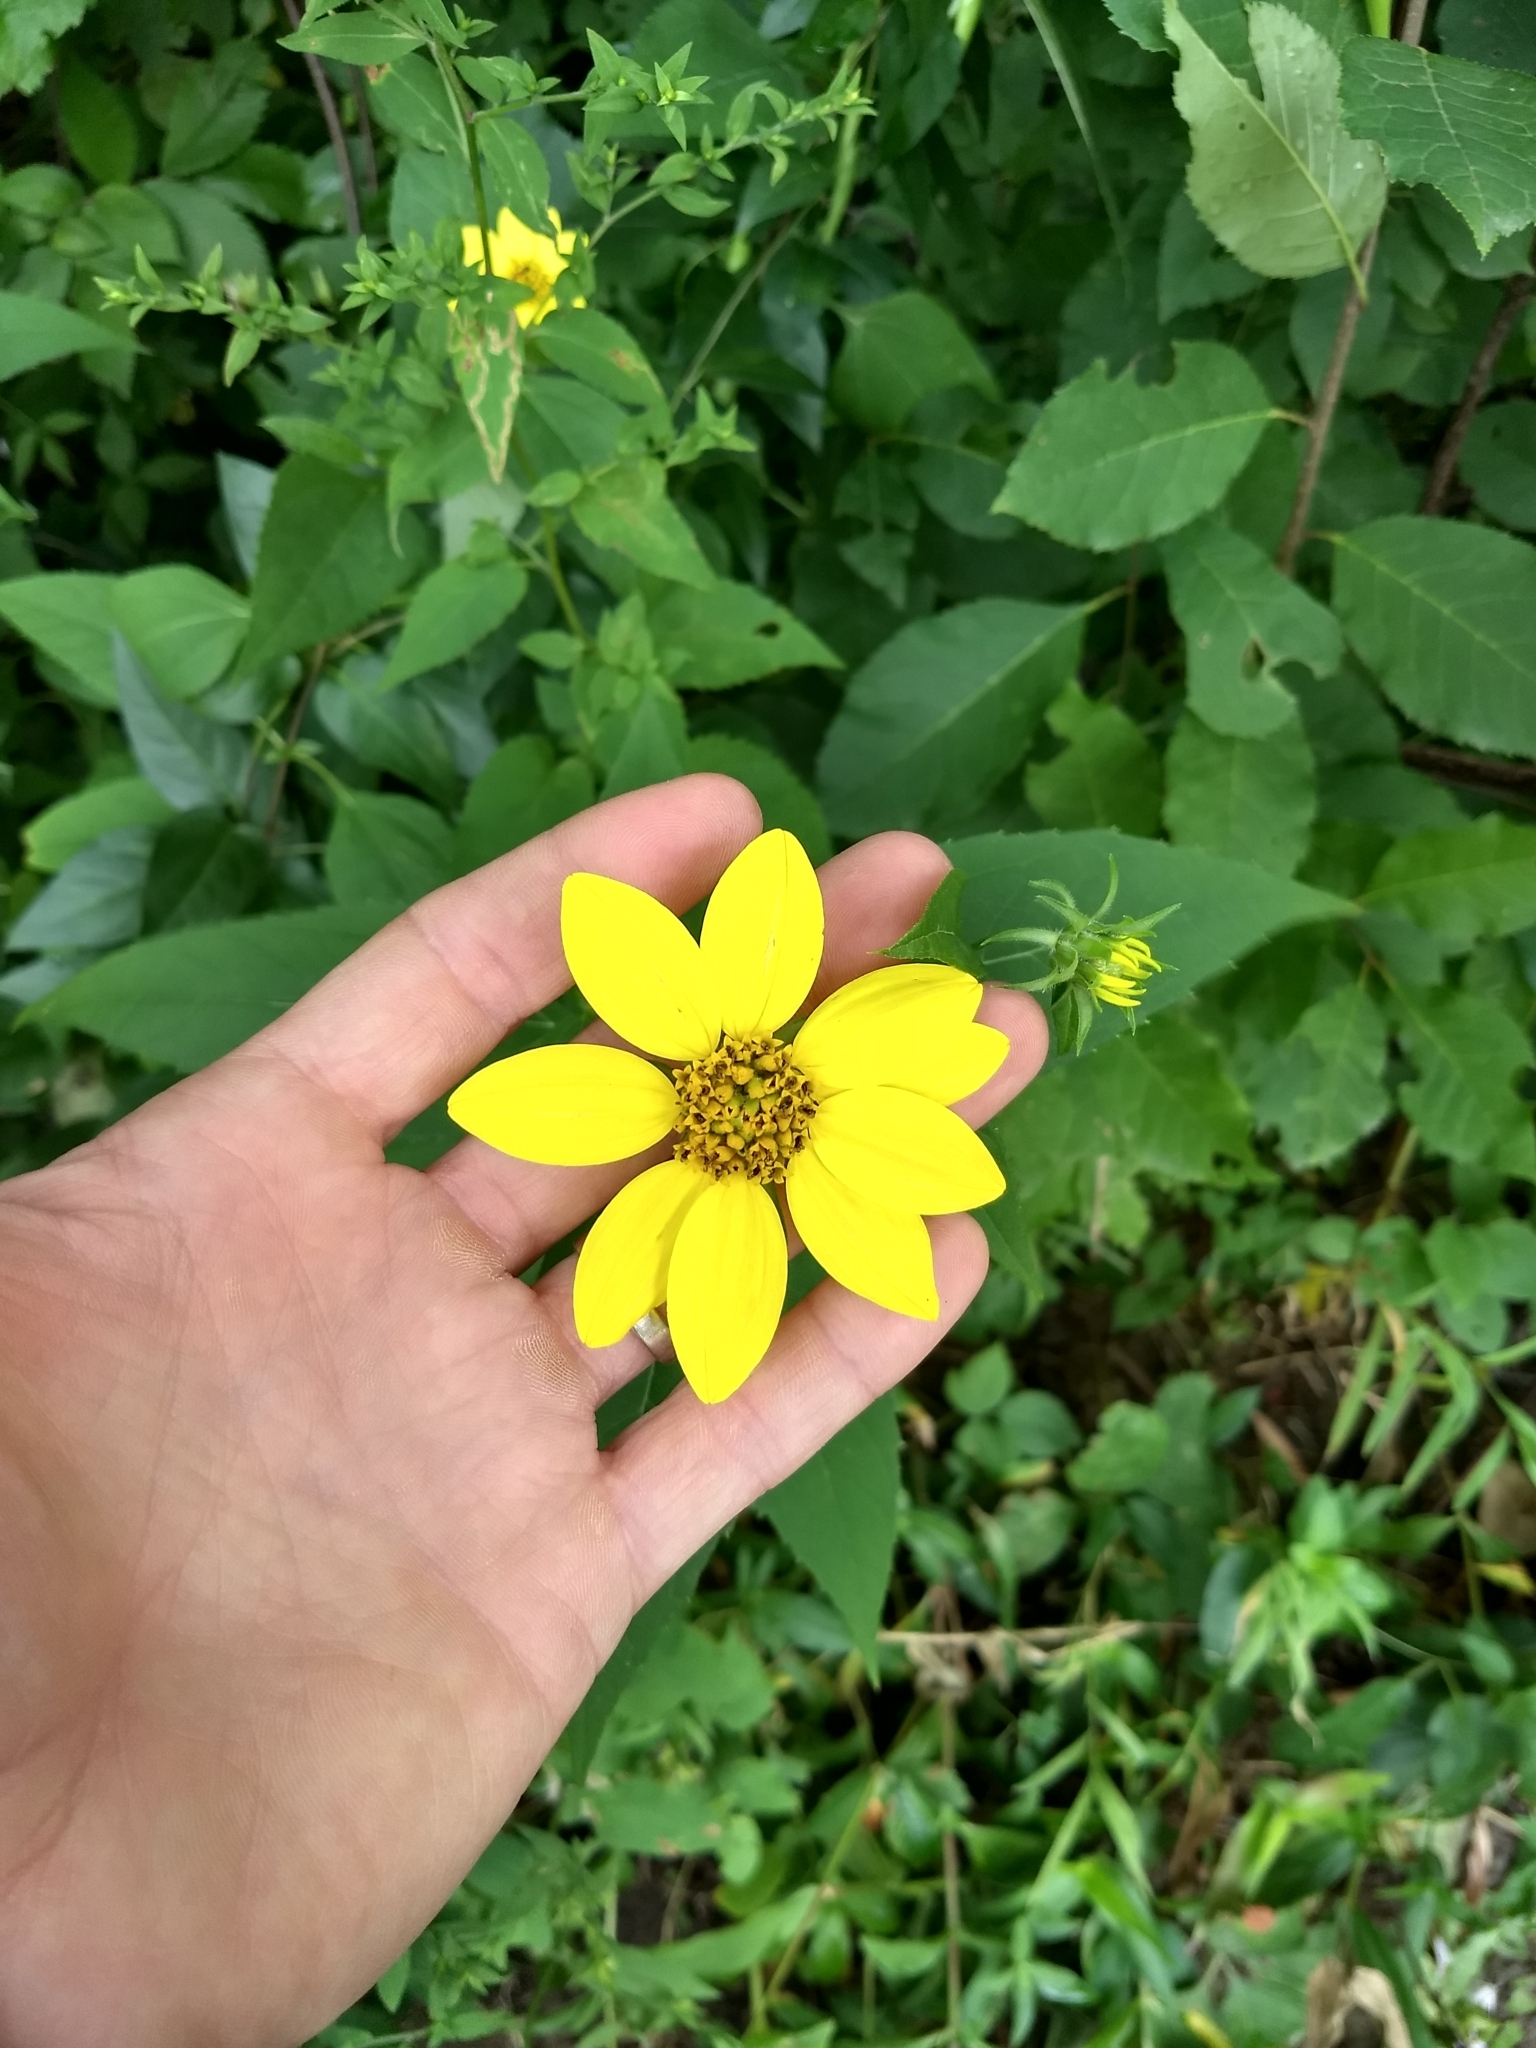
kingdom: Plantae
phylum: Tracheophyta
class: Magnoliopsida
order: Asterales
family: Asteraceae
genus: Helianthus
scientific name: Helianthus divaricatus
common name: Divergent sunflower
